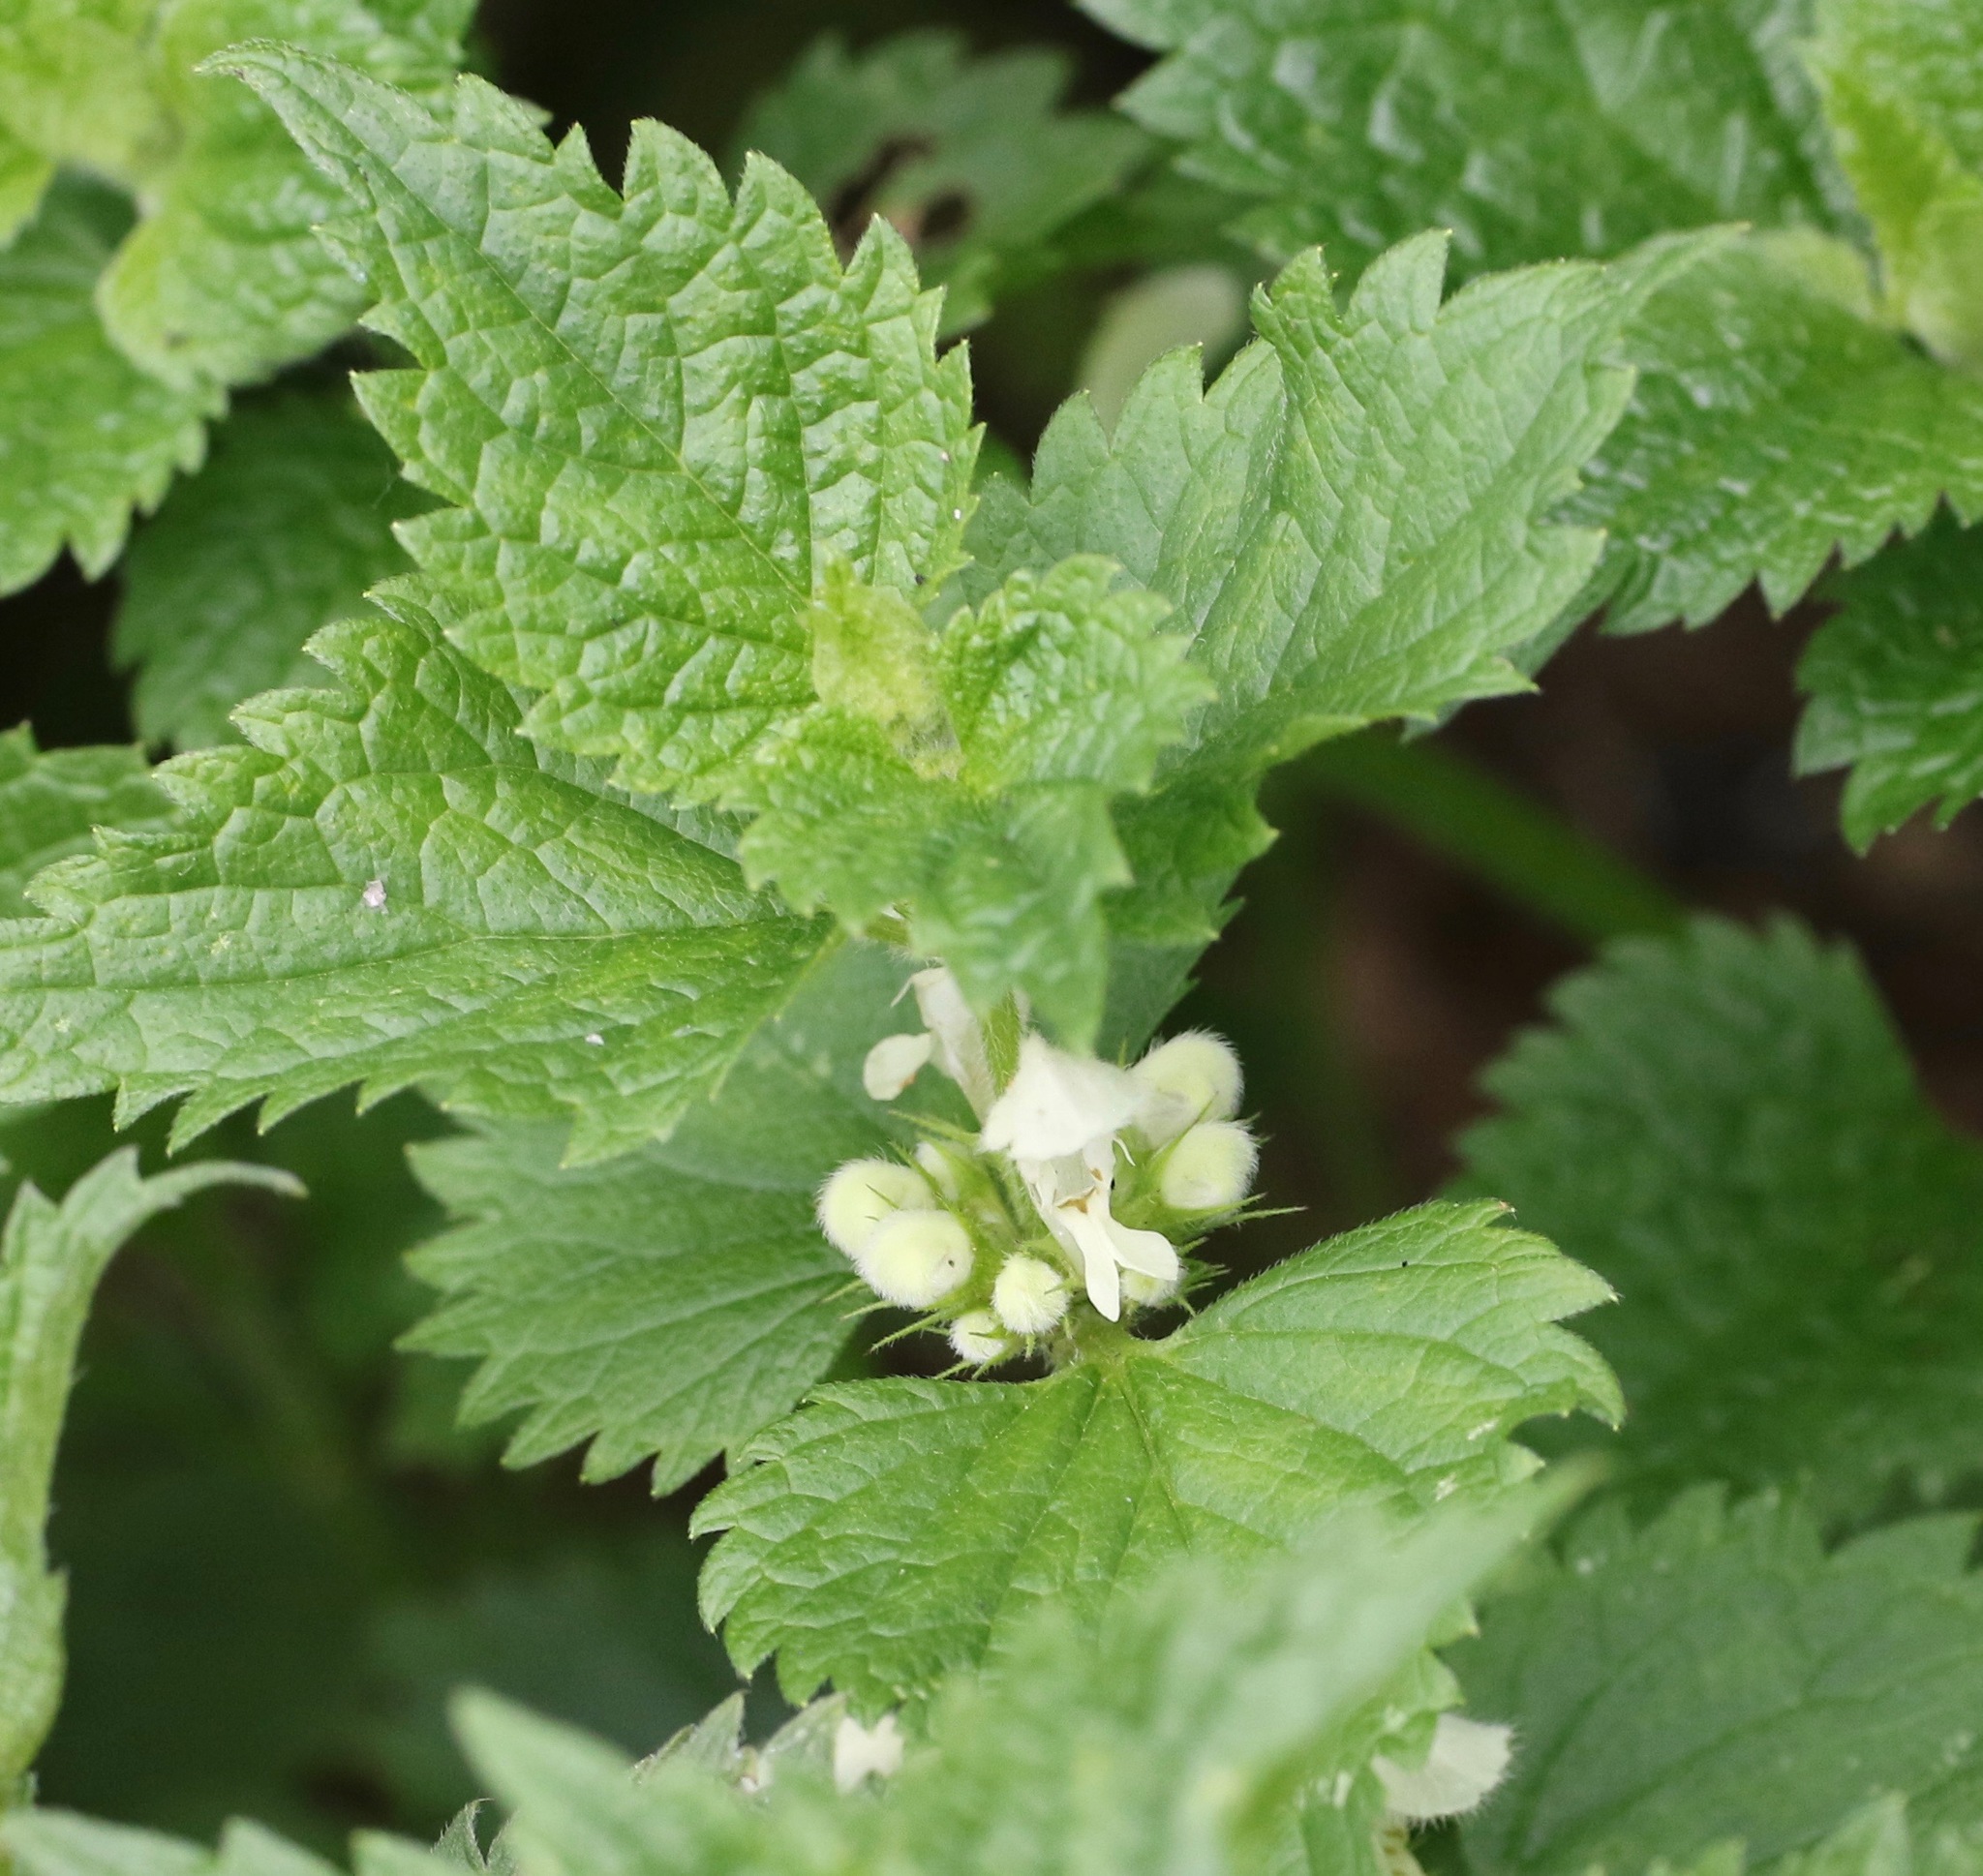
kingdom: Plantae
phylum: Tracheophyta
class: Magnoliopsida
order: Lamiales
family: Lamiaceae
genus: Lamium
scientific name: Lamium album
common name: White dead-nettle
